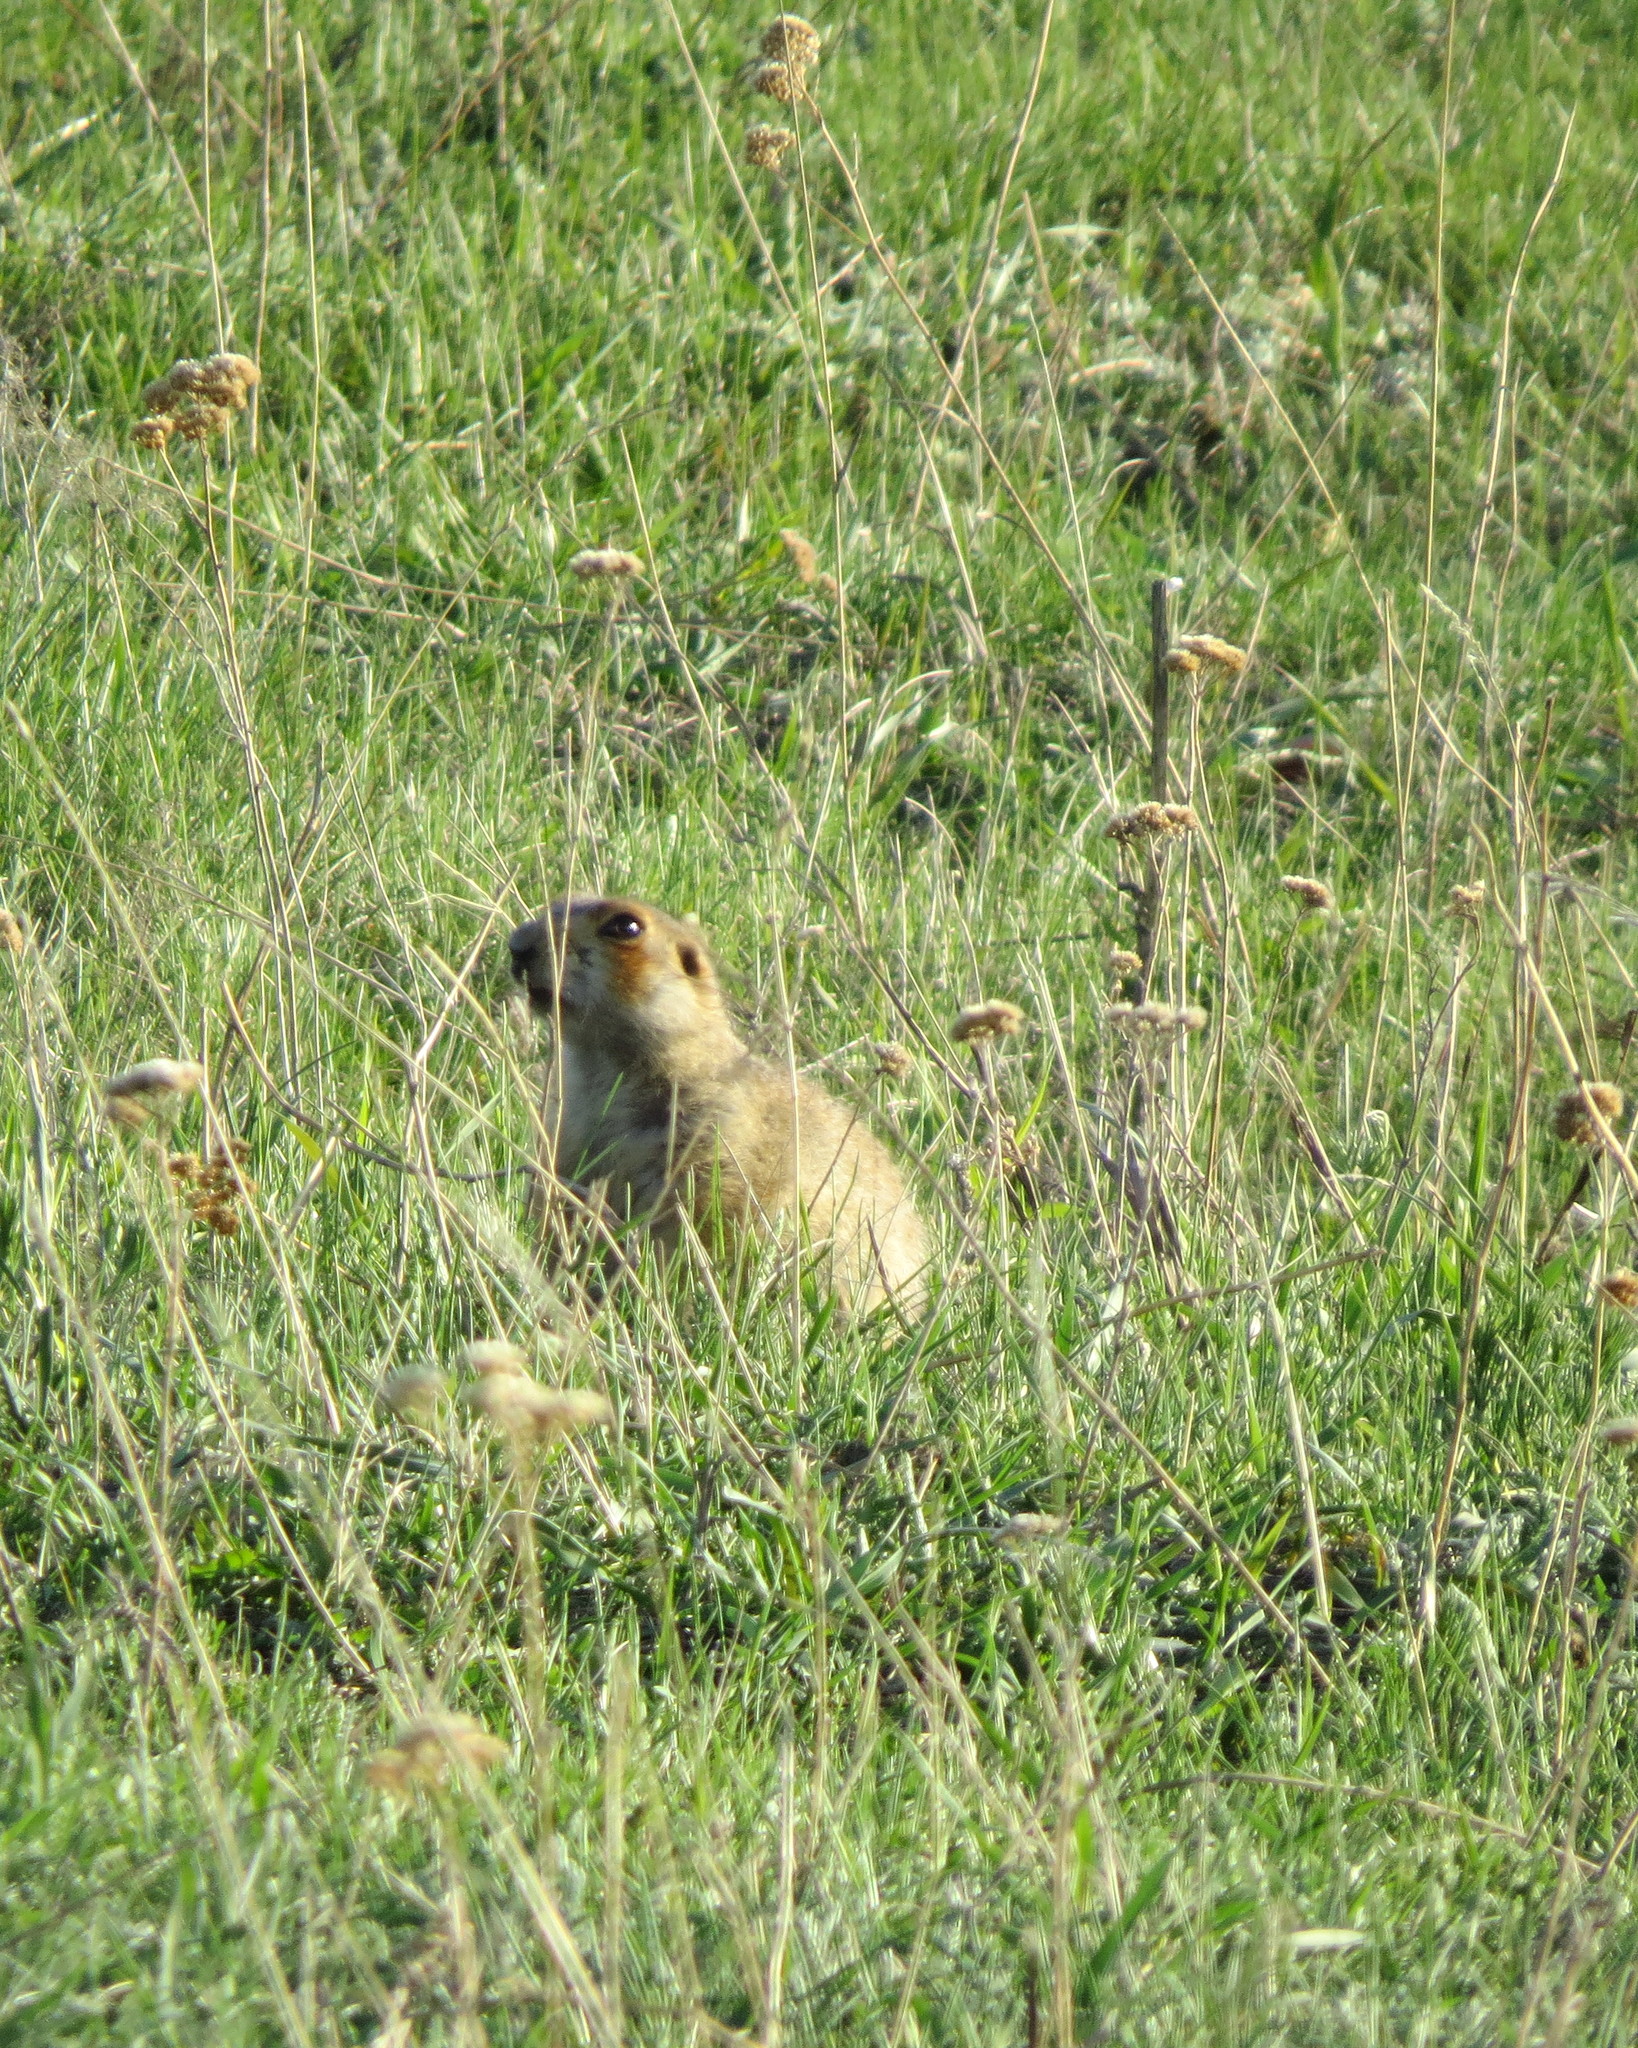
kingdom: Animalia
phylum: Chordata
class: Mammalia
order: Rodentia
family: Sciuridae
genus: Spermophilus
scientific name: Spermophilus major
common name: Russet ground squirrel
